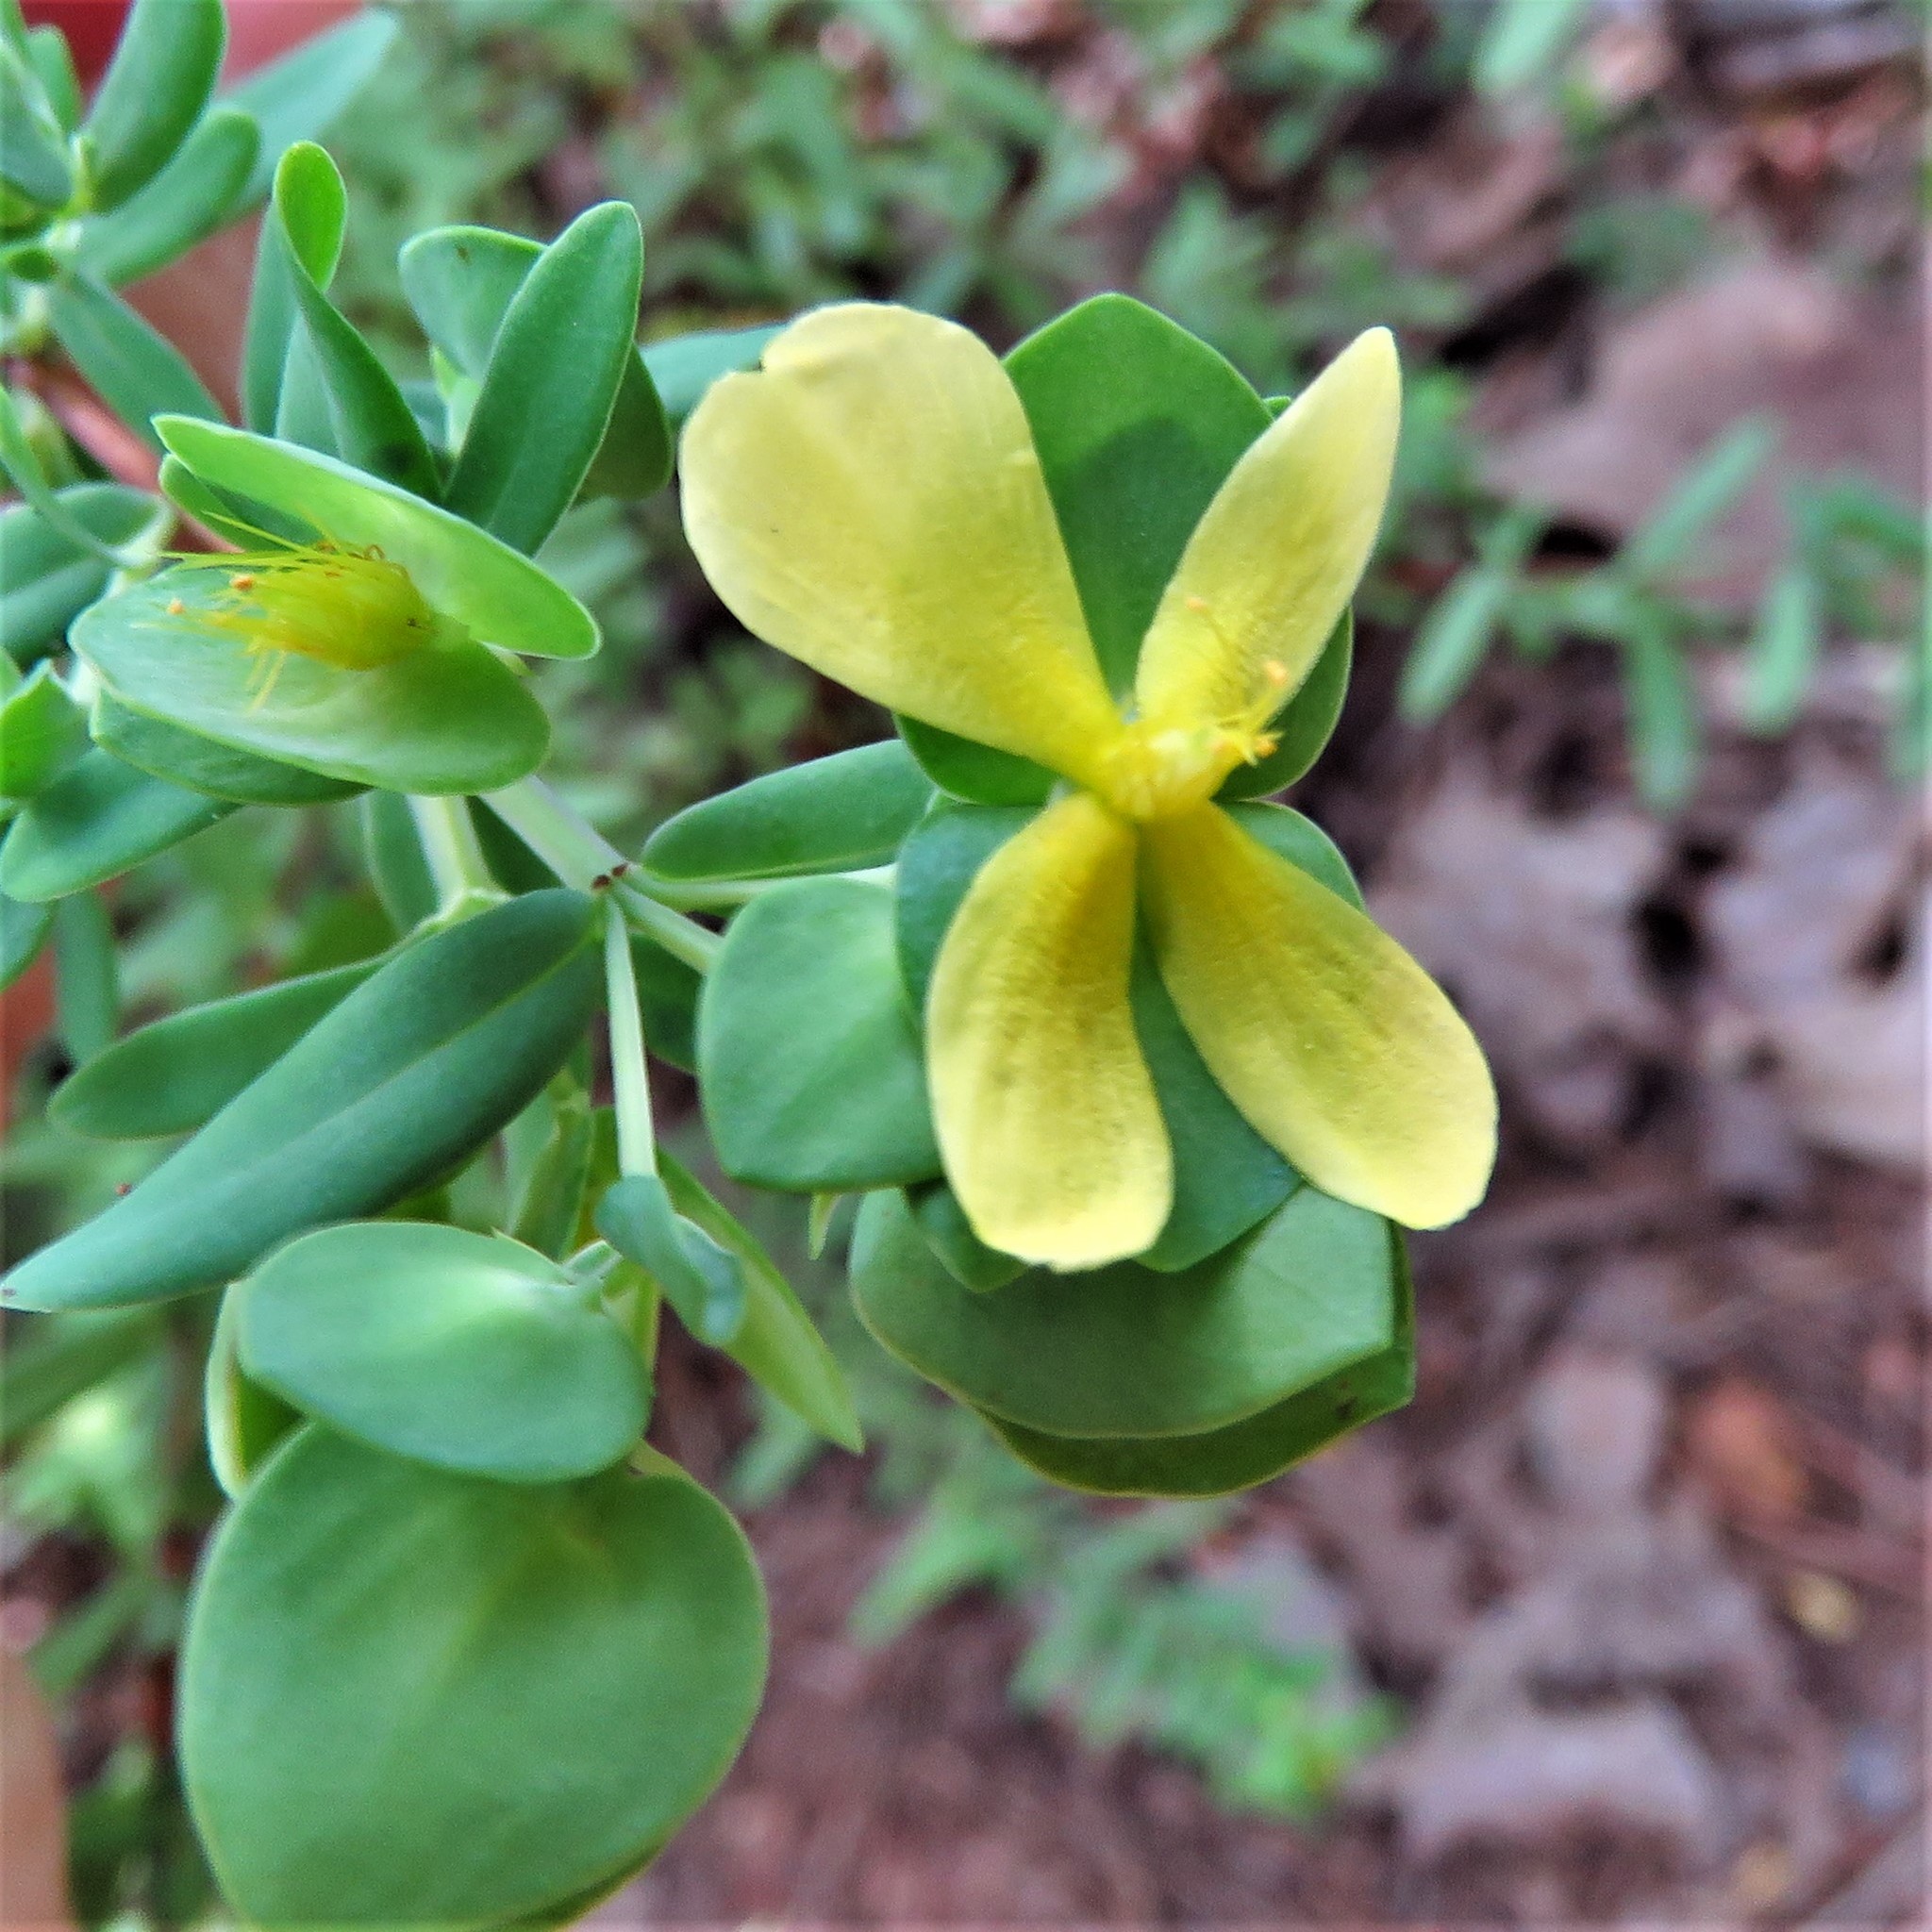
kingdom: Plantae
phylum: Tracheophyta
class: Magnoliopsida
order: Malpighiales
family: Hypericaceae
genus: Hypericum
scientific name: Hypericum hypericoides
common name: St. andrew's cross
